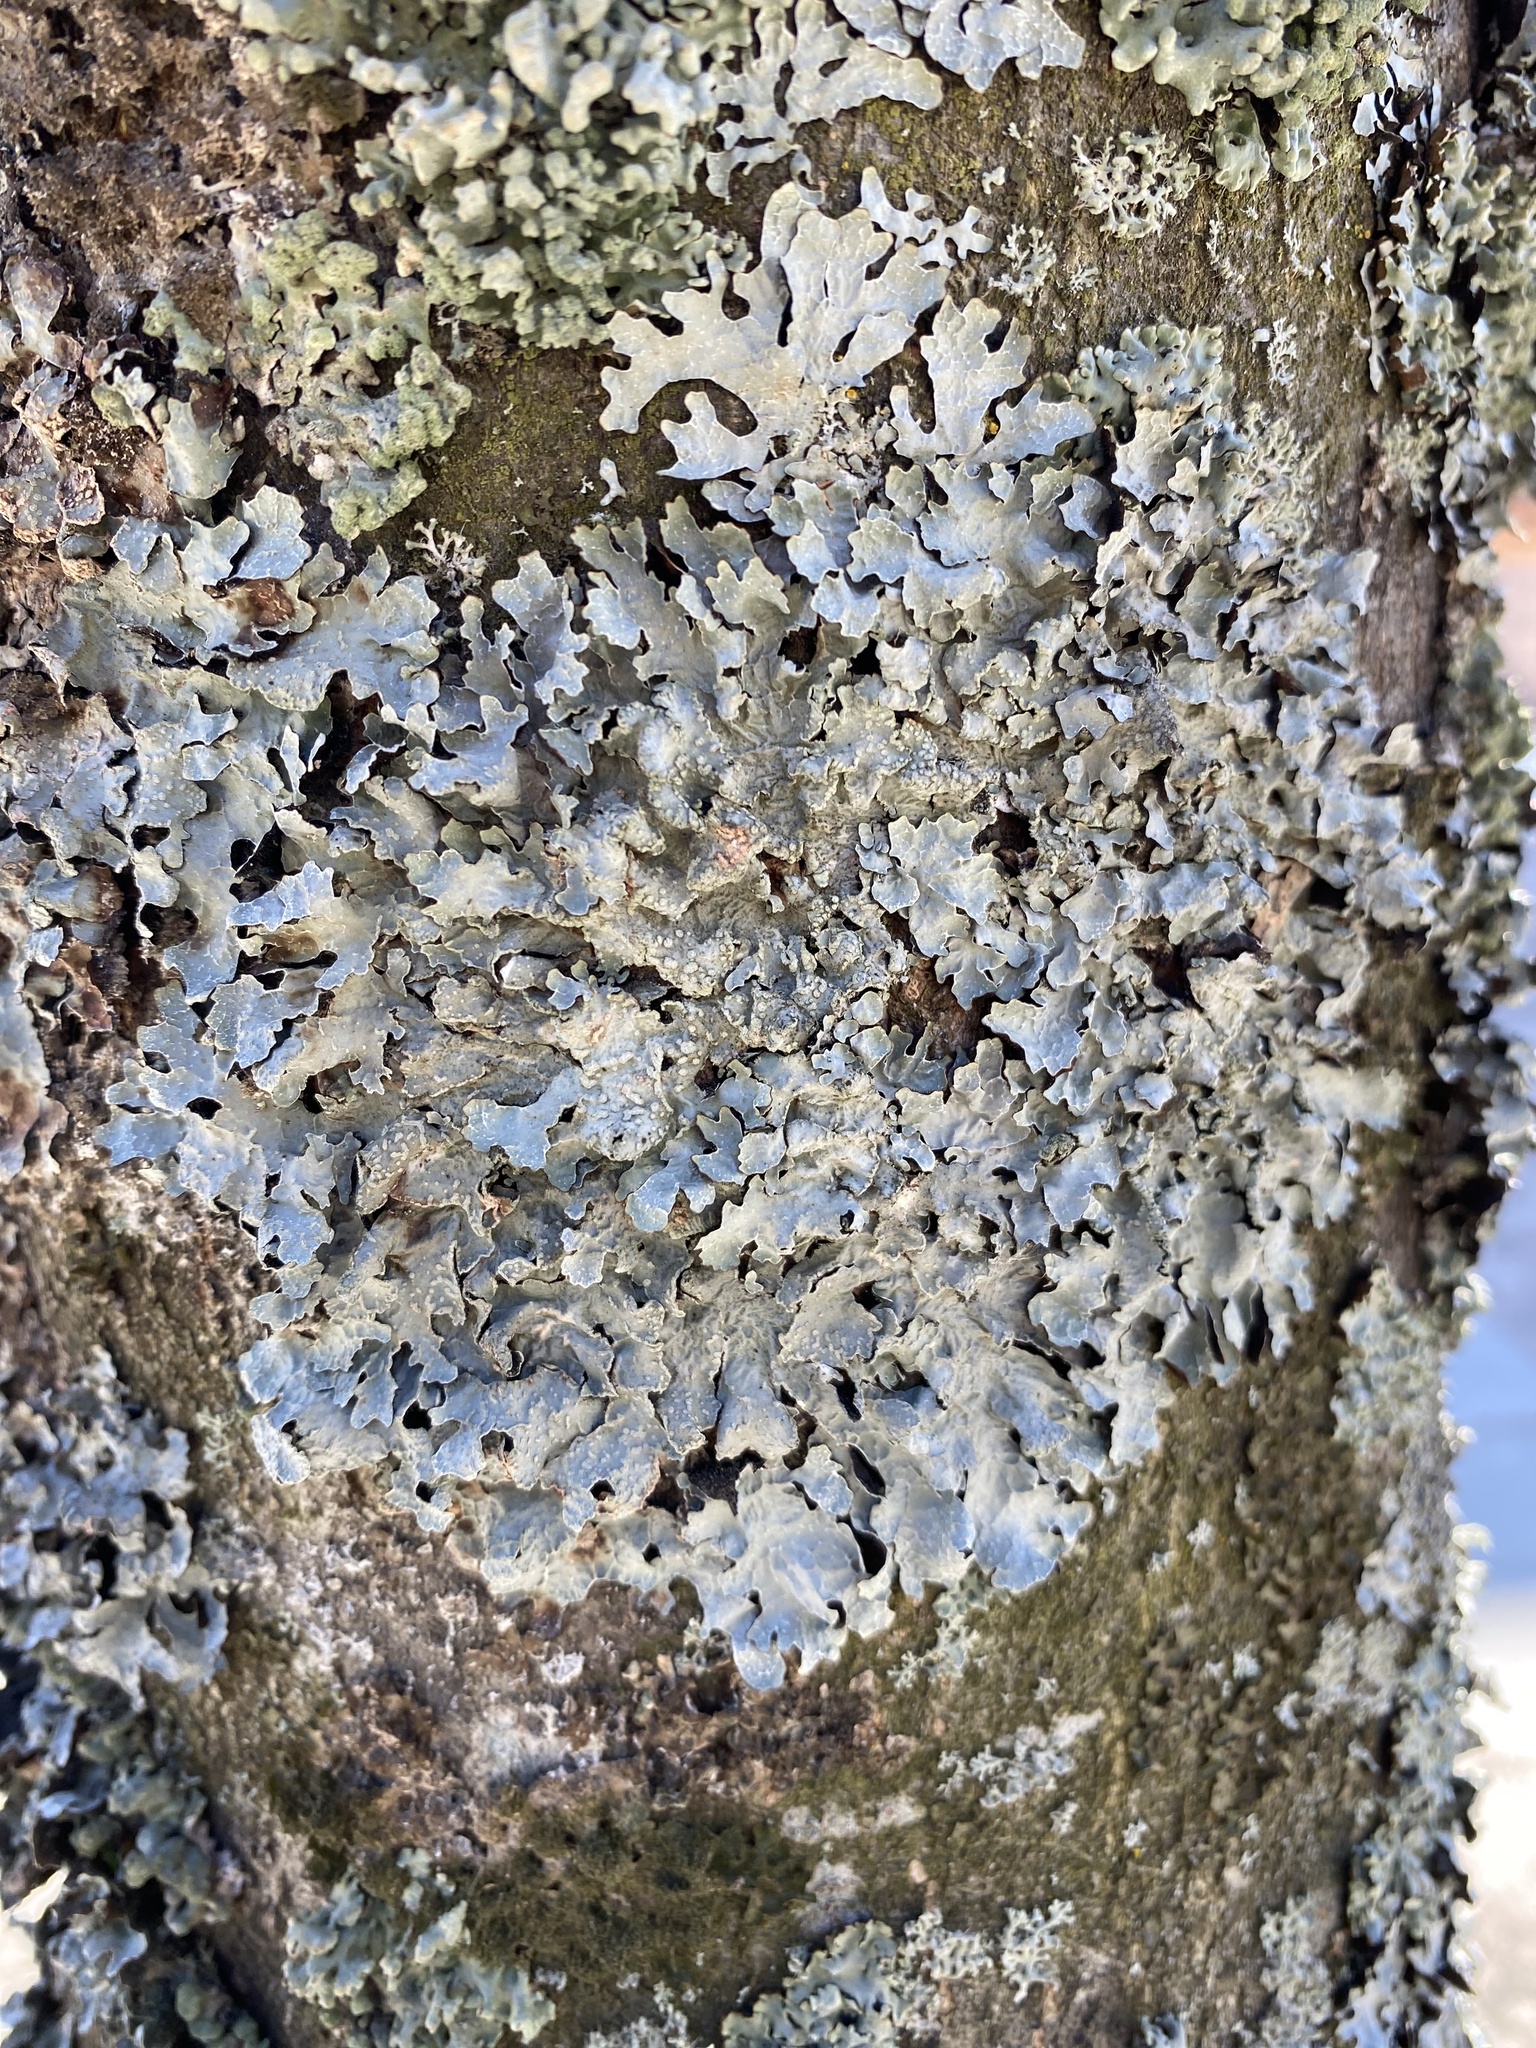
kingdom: Fungi
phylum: Ascomycota
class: Lecanoromycetes
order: Lecanorales
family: Parmeliaceae
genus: Parmelia
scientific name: Parmelia sulcata
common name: Netted shield lichen
